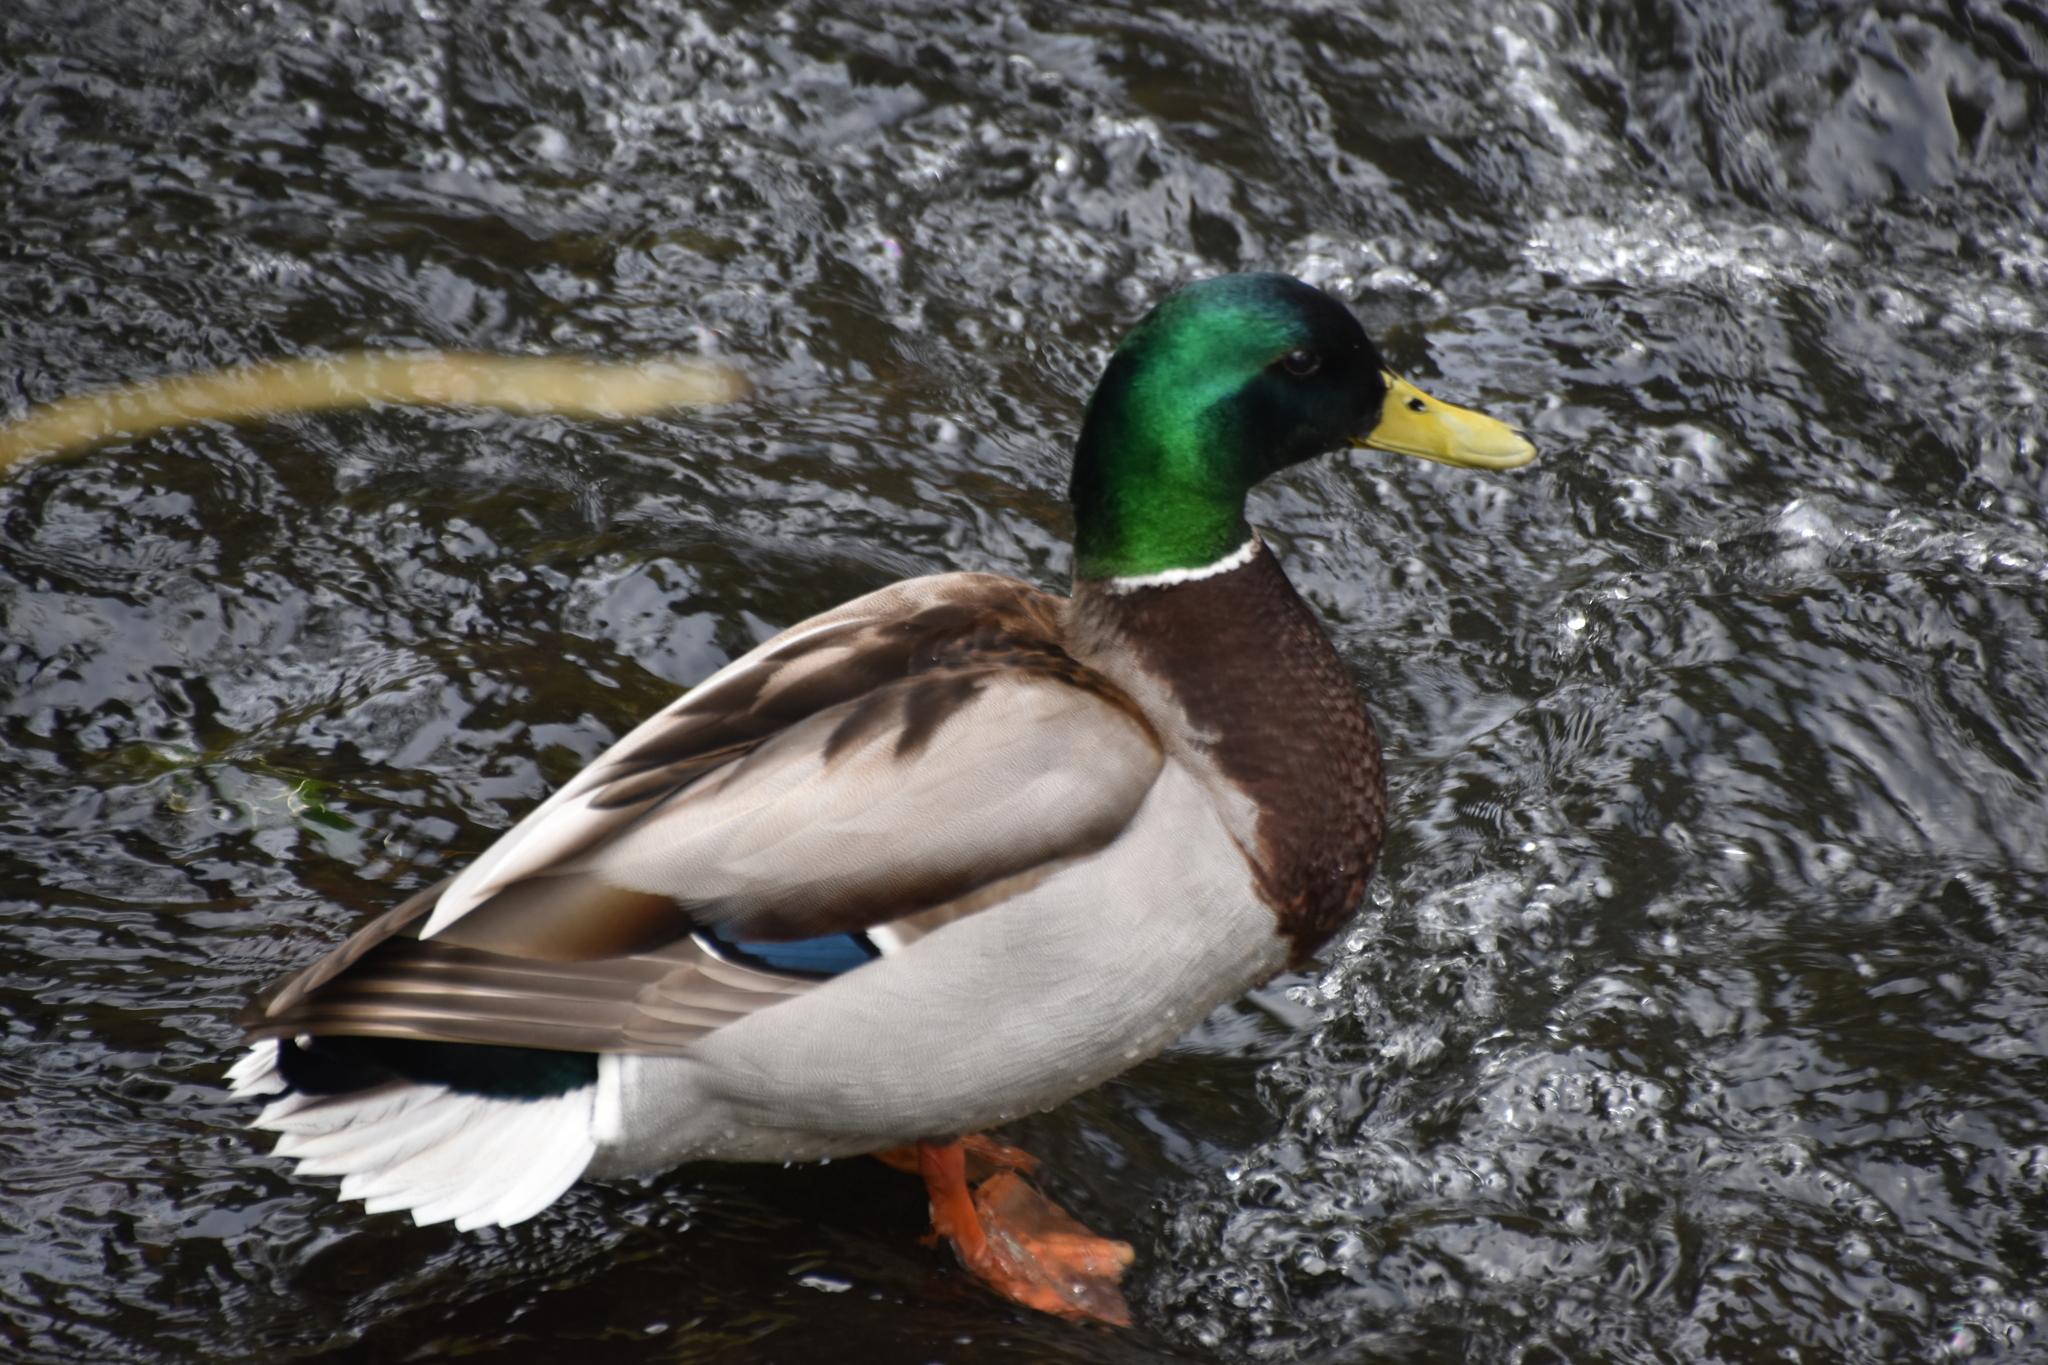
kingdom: Animalia
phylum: Chordata
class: Aves
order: Anseriformes
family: Anatidae
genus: Anas
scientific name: Anas platyrhynchos
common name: Mallard
